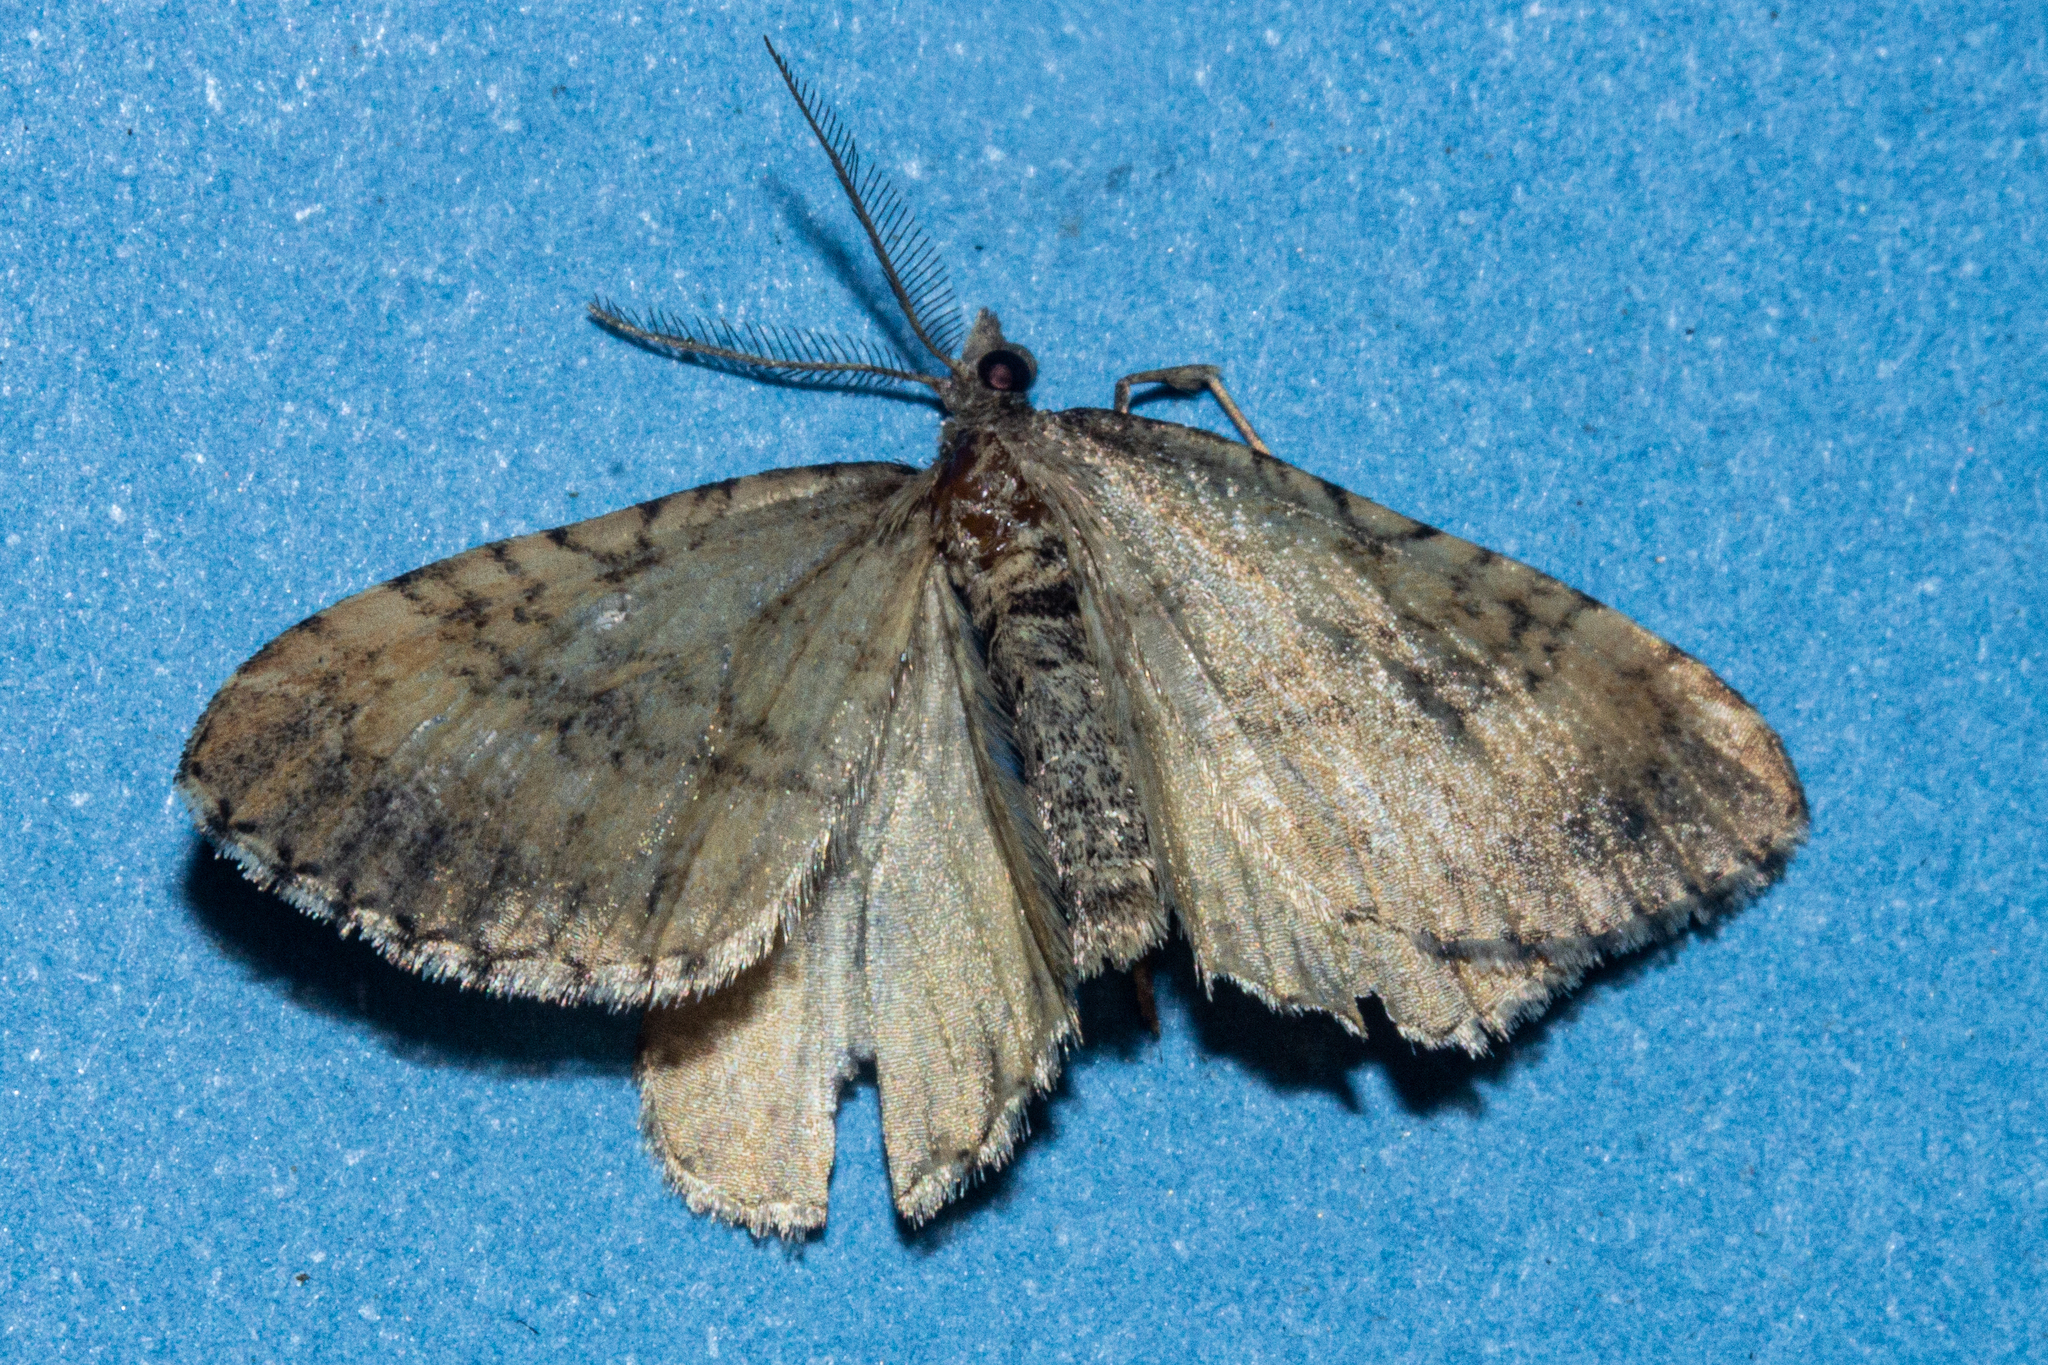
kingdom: Animalia
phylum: Arthropoda
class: Insecta
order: Lepidoptera
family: Geometridae
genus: Asaphodes
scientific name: Asaphodes aegrota
